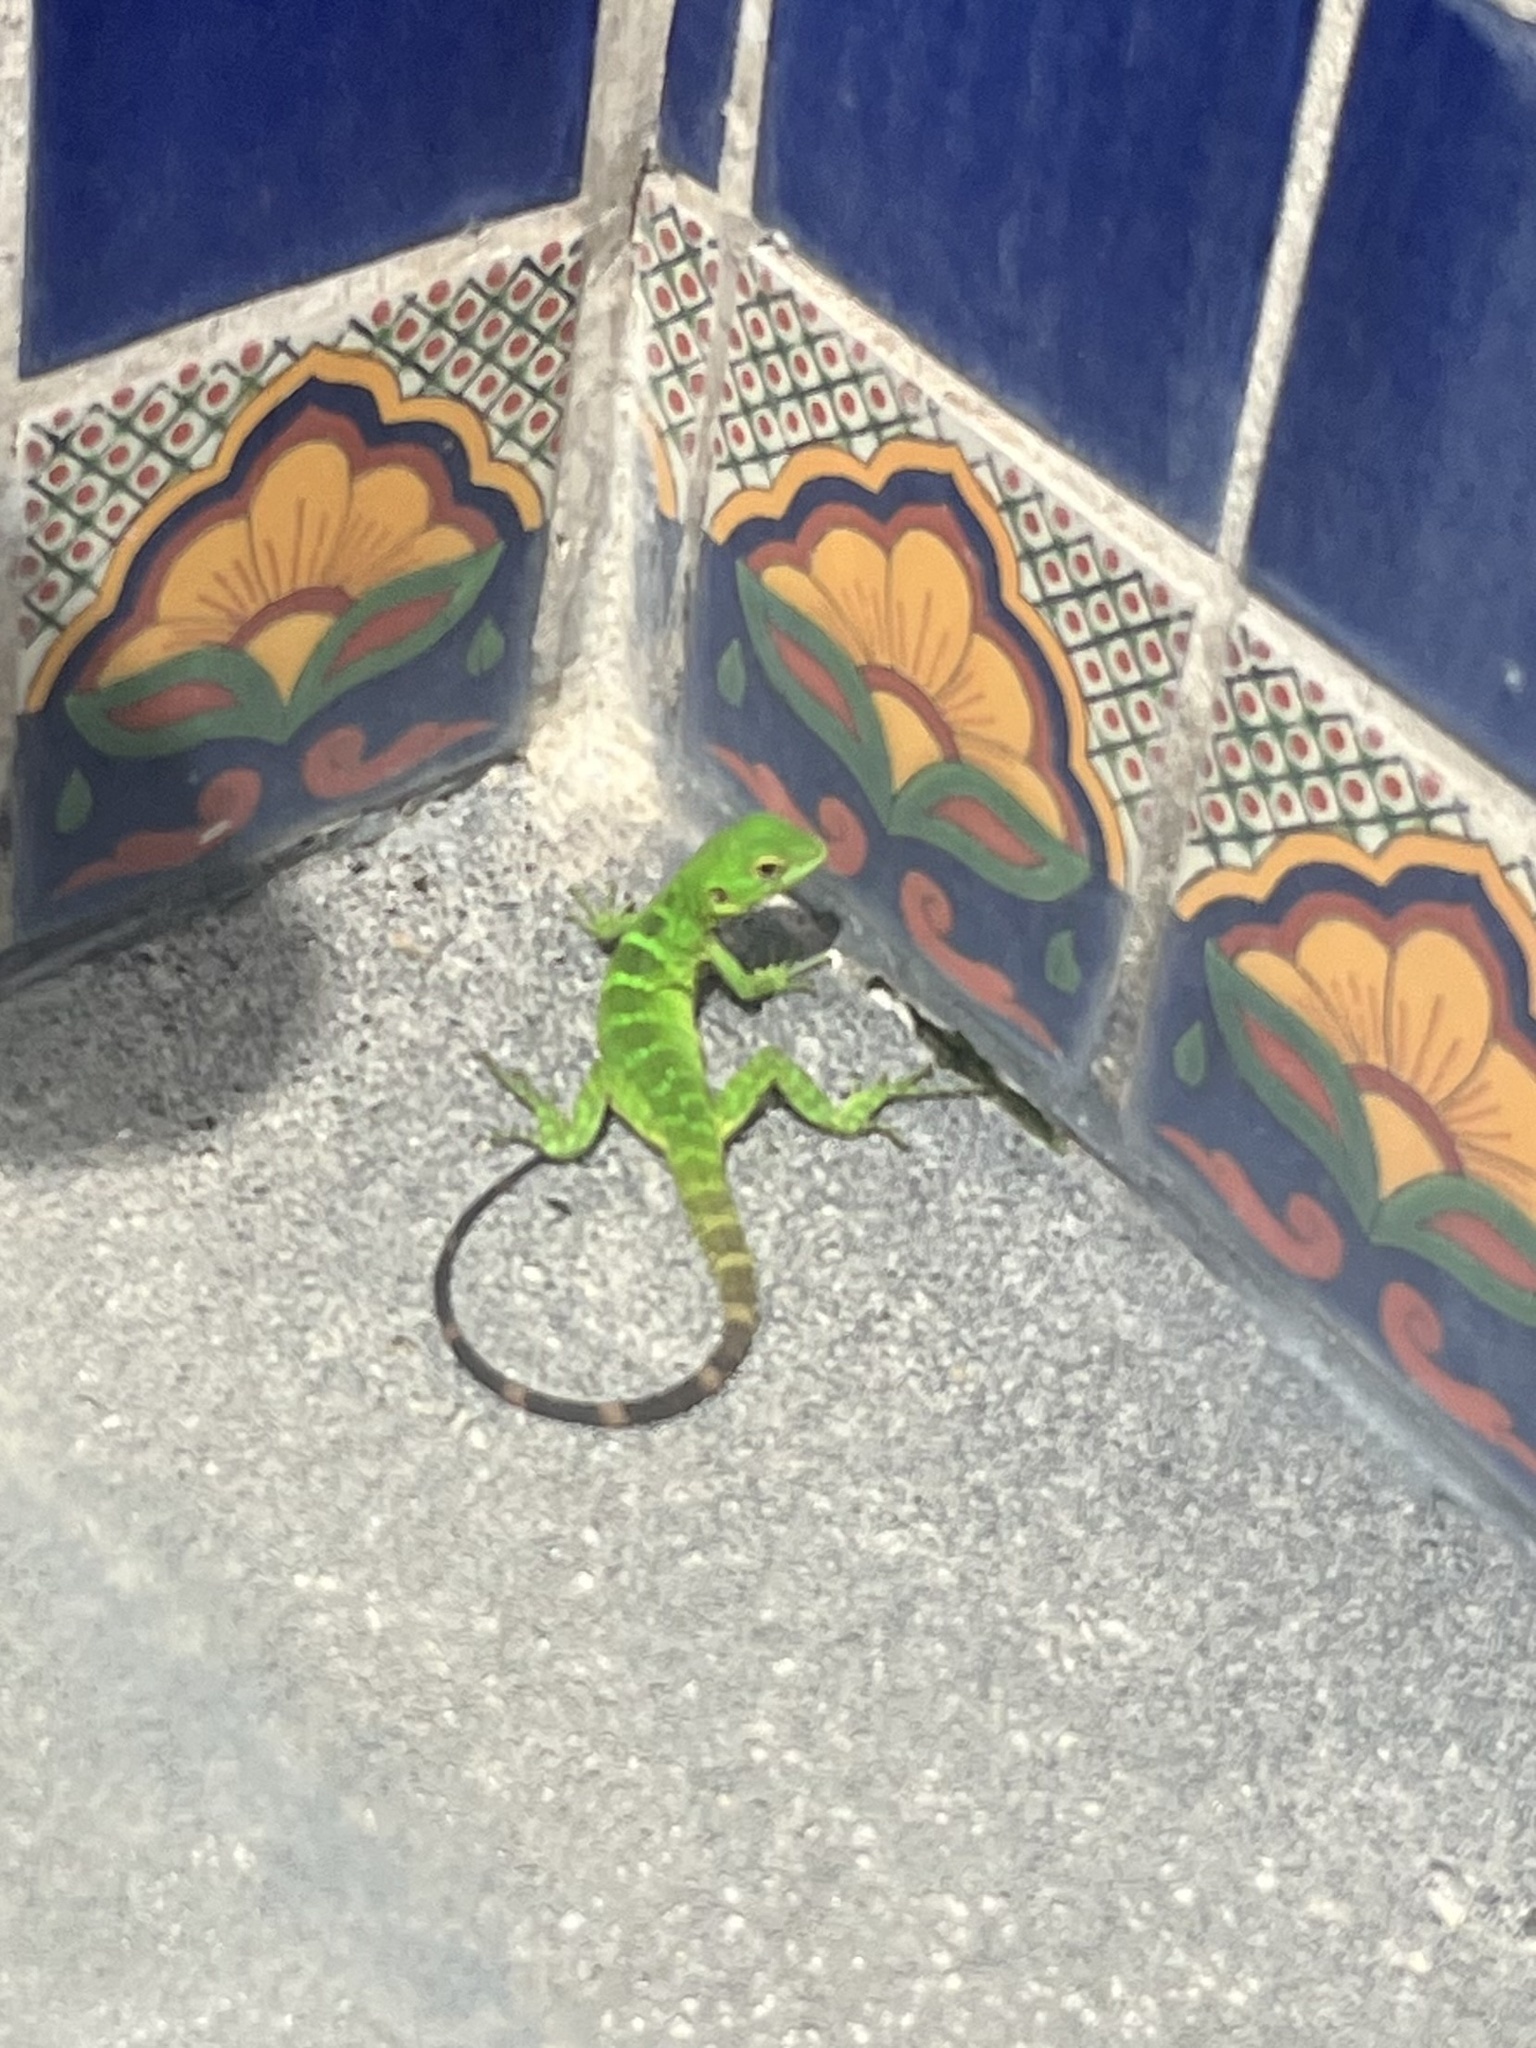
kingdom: Animalia
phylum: Chordata
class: Squamata
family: Iguanidae
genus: Ctenosaura
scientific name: Ctenosaura hemilopha
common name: Baja california spiny- tailed iguana
